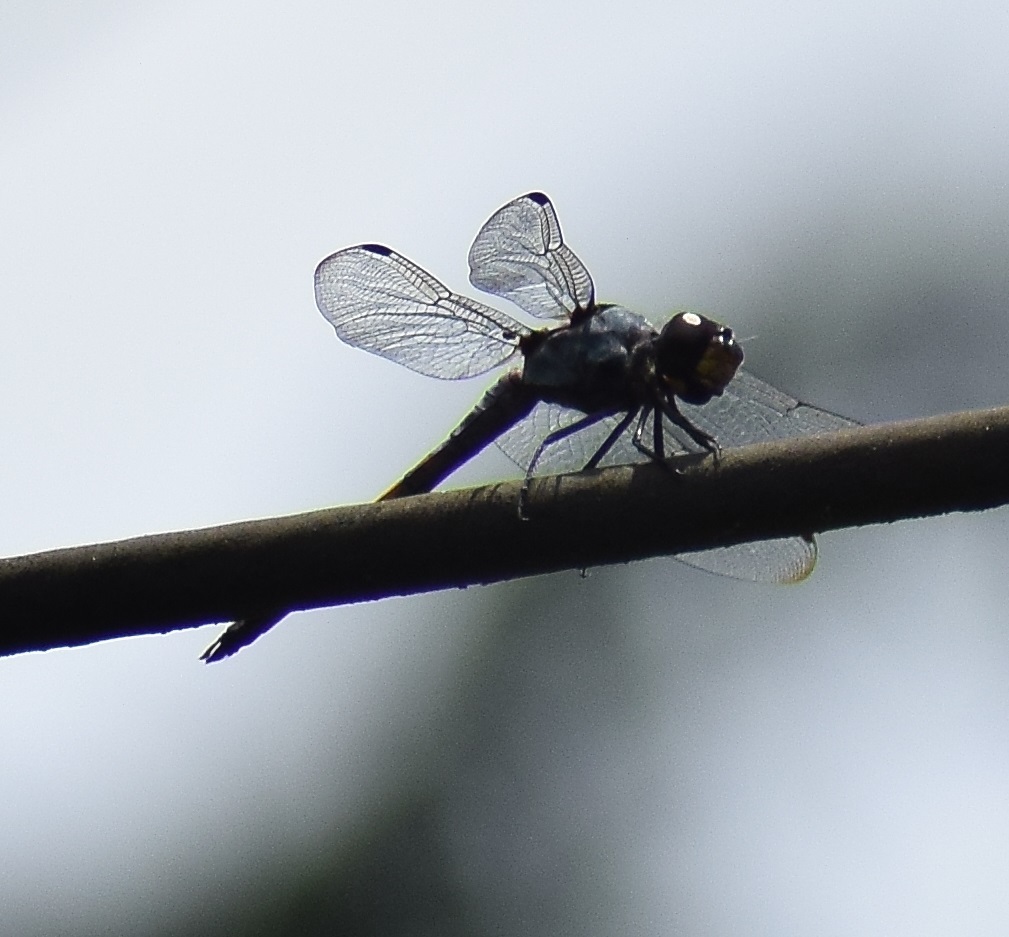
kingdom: Animalia
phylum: Arthropoda
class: Insecta
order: Odonata
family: Libellulidae
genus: Potamarcha
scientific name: Potamarcha congener
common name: Blue chaser
